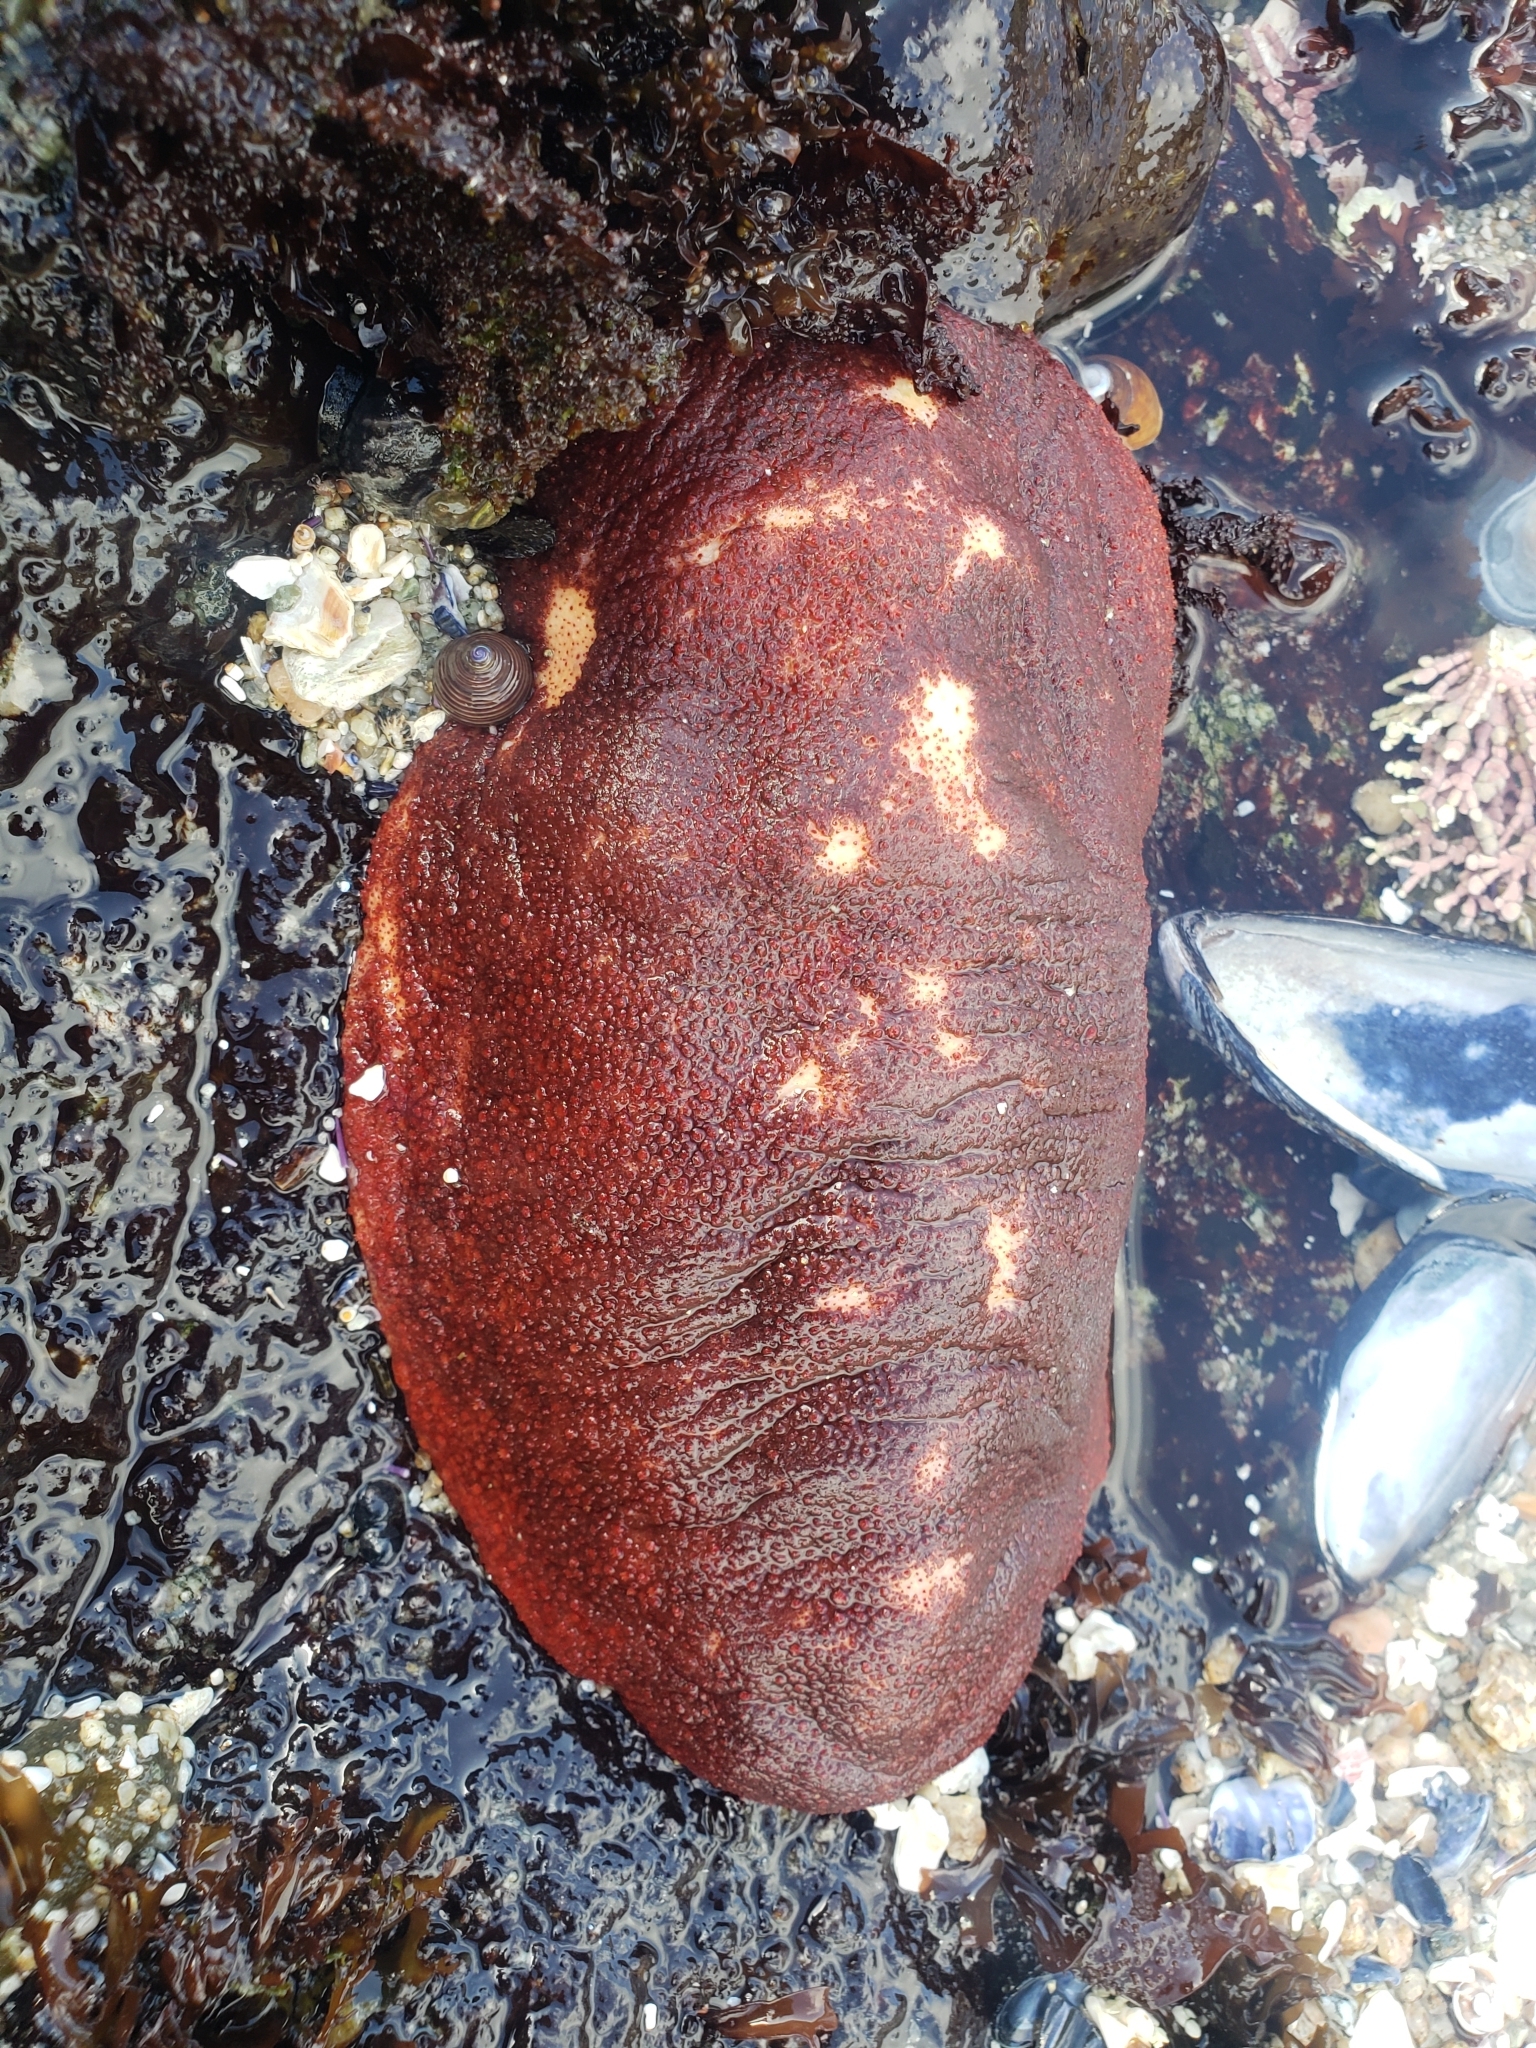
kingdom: Animalia
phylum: Mollusca
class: Polyplacophora
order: Chitonida
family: Acanthochitonidae
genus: Cryptochiton
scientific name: Cryptochiton stelleri
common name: Giant pacific chiton
